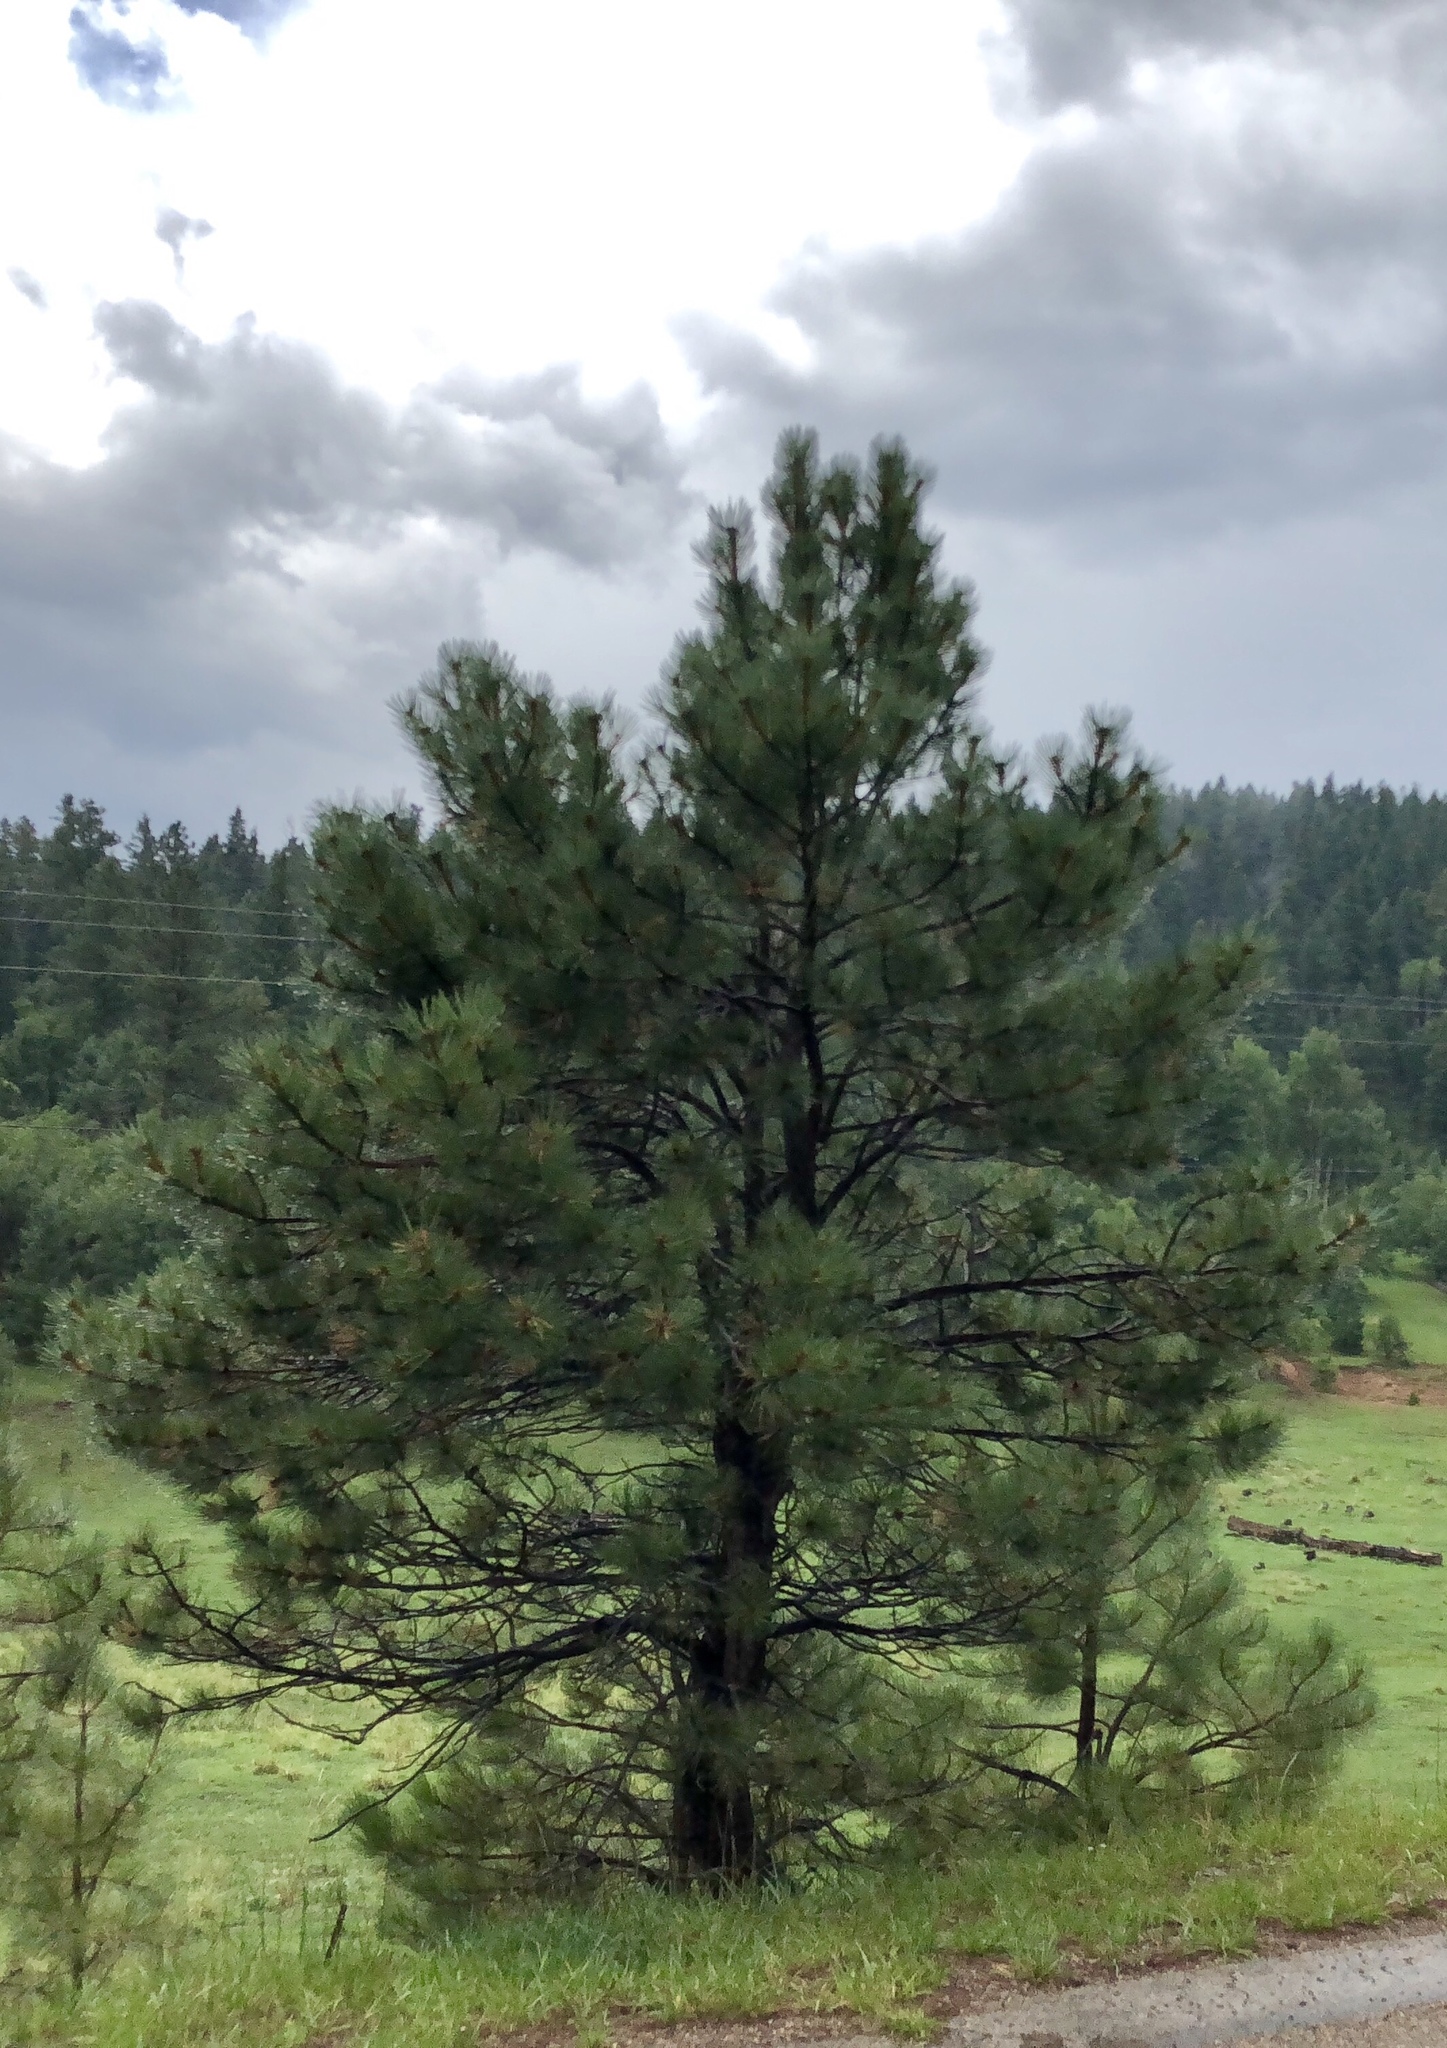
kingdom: Plantae
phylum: Tracheophyta
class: Pinopsida
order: Pinales
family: Pinaceae
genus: Pinus
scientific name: Pinus ponderosa
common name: Western yellow-pine
